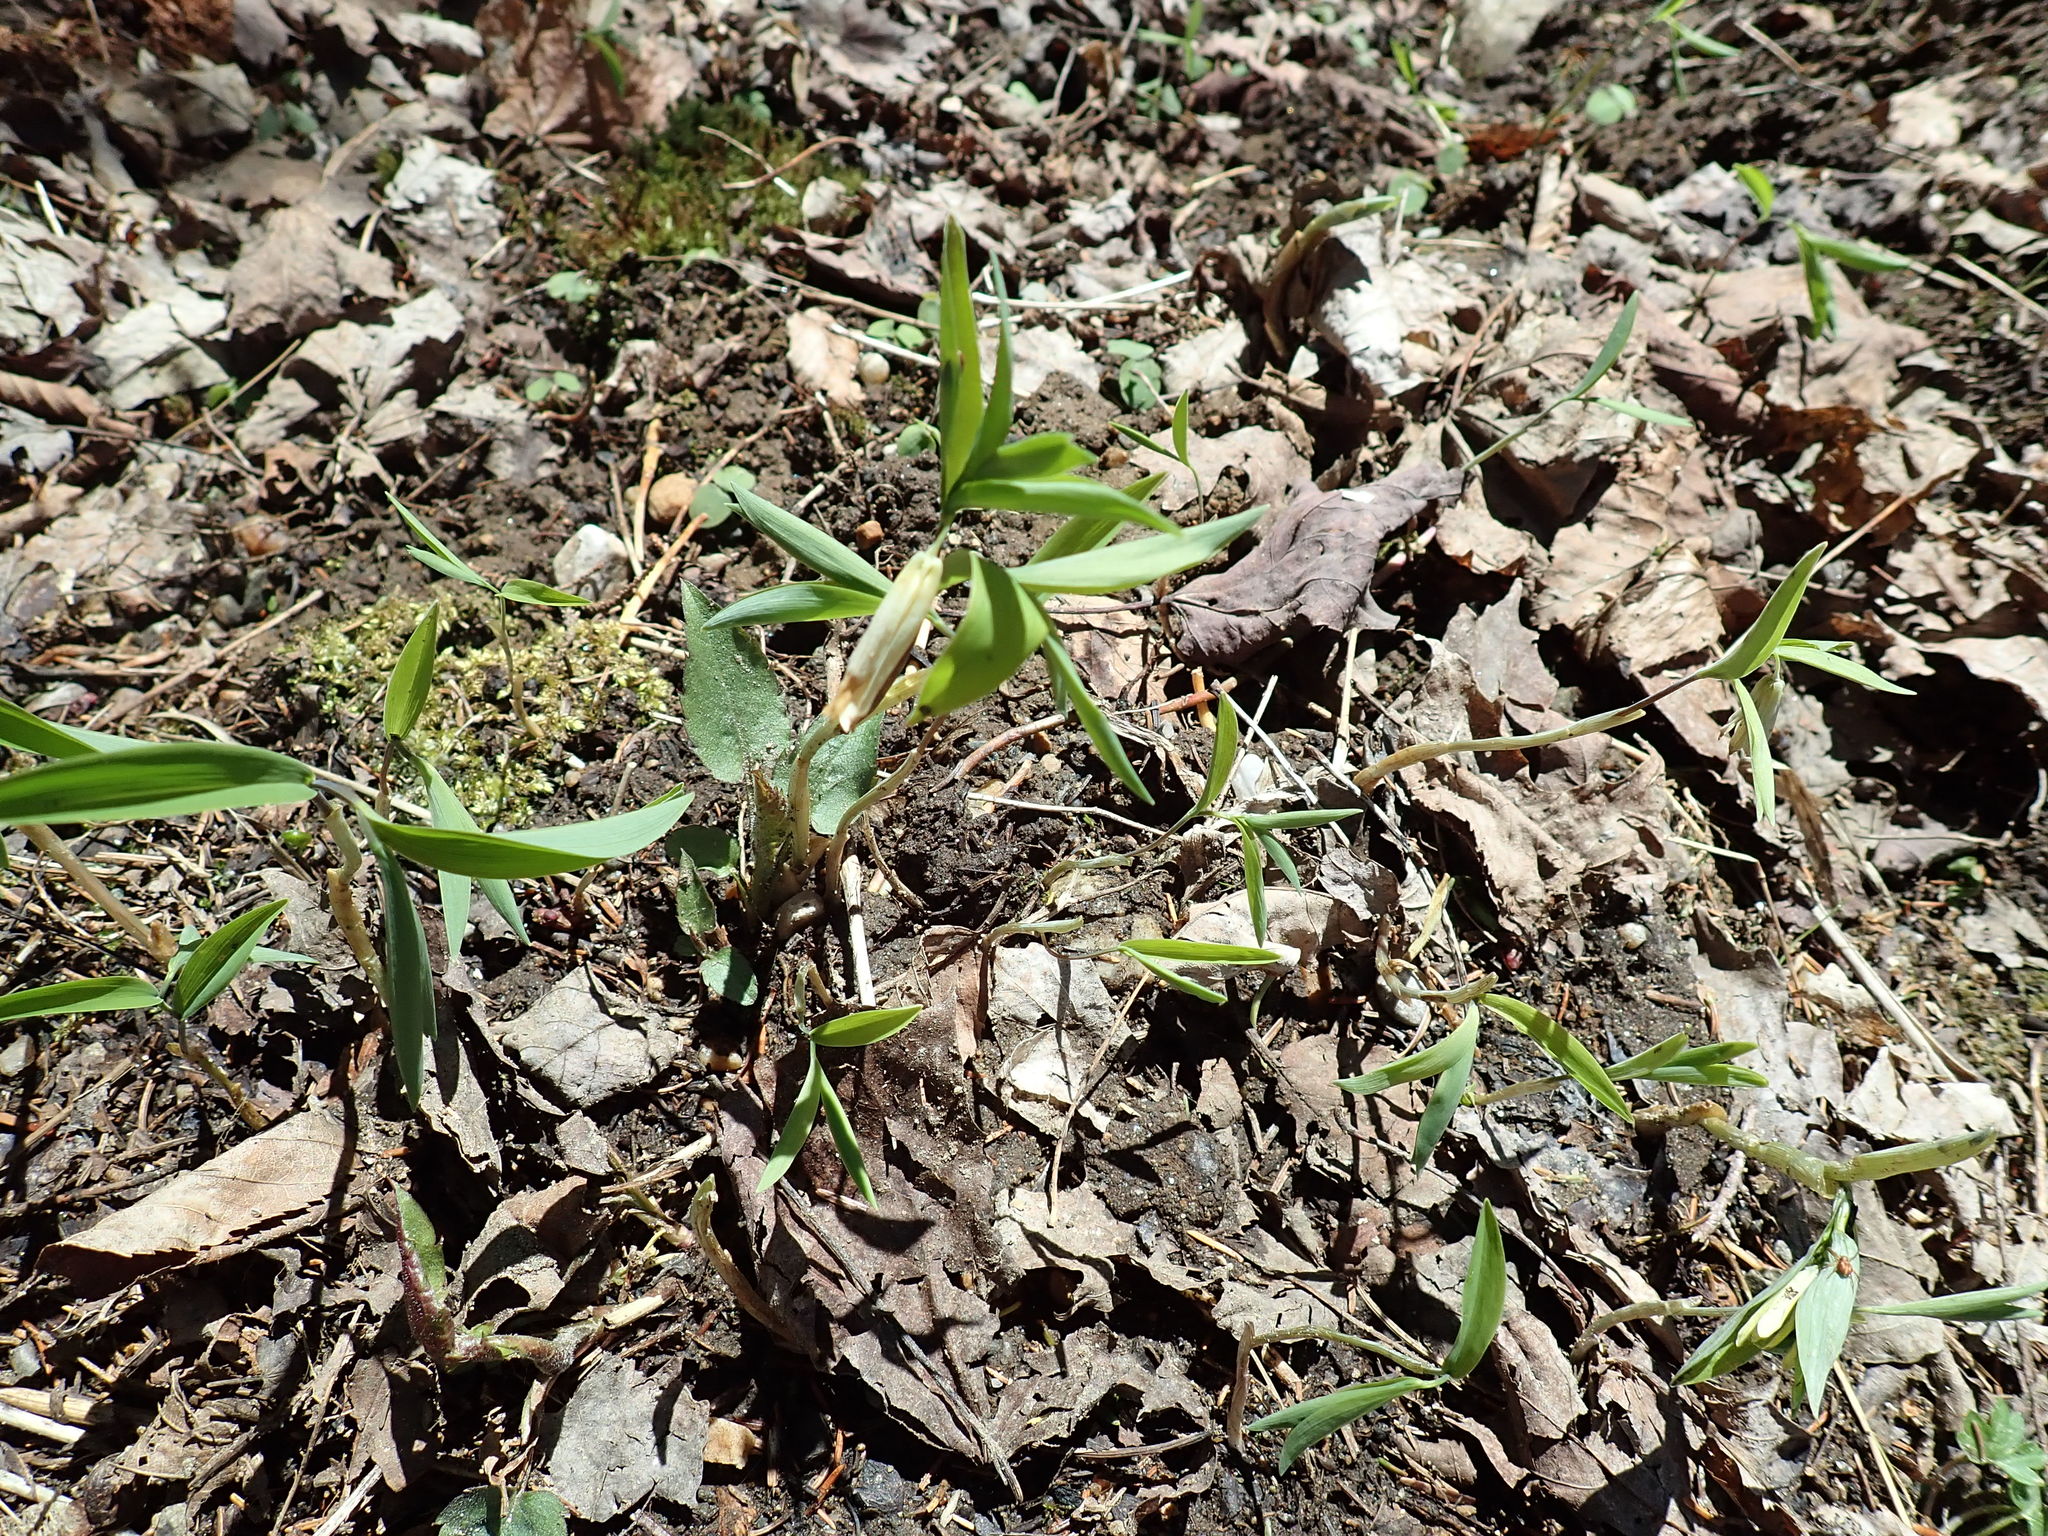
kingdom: Plantae
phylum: Tracheophyta
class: Liliopsida
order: Liliales
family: Colchicaceae
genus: Uvularia
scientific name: Uvularia sessilifolia
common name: Straw-lily
